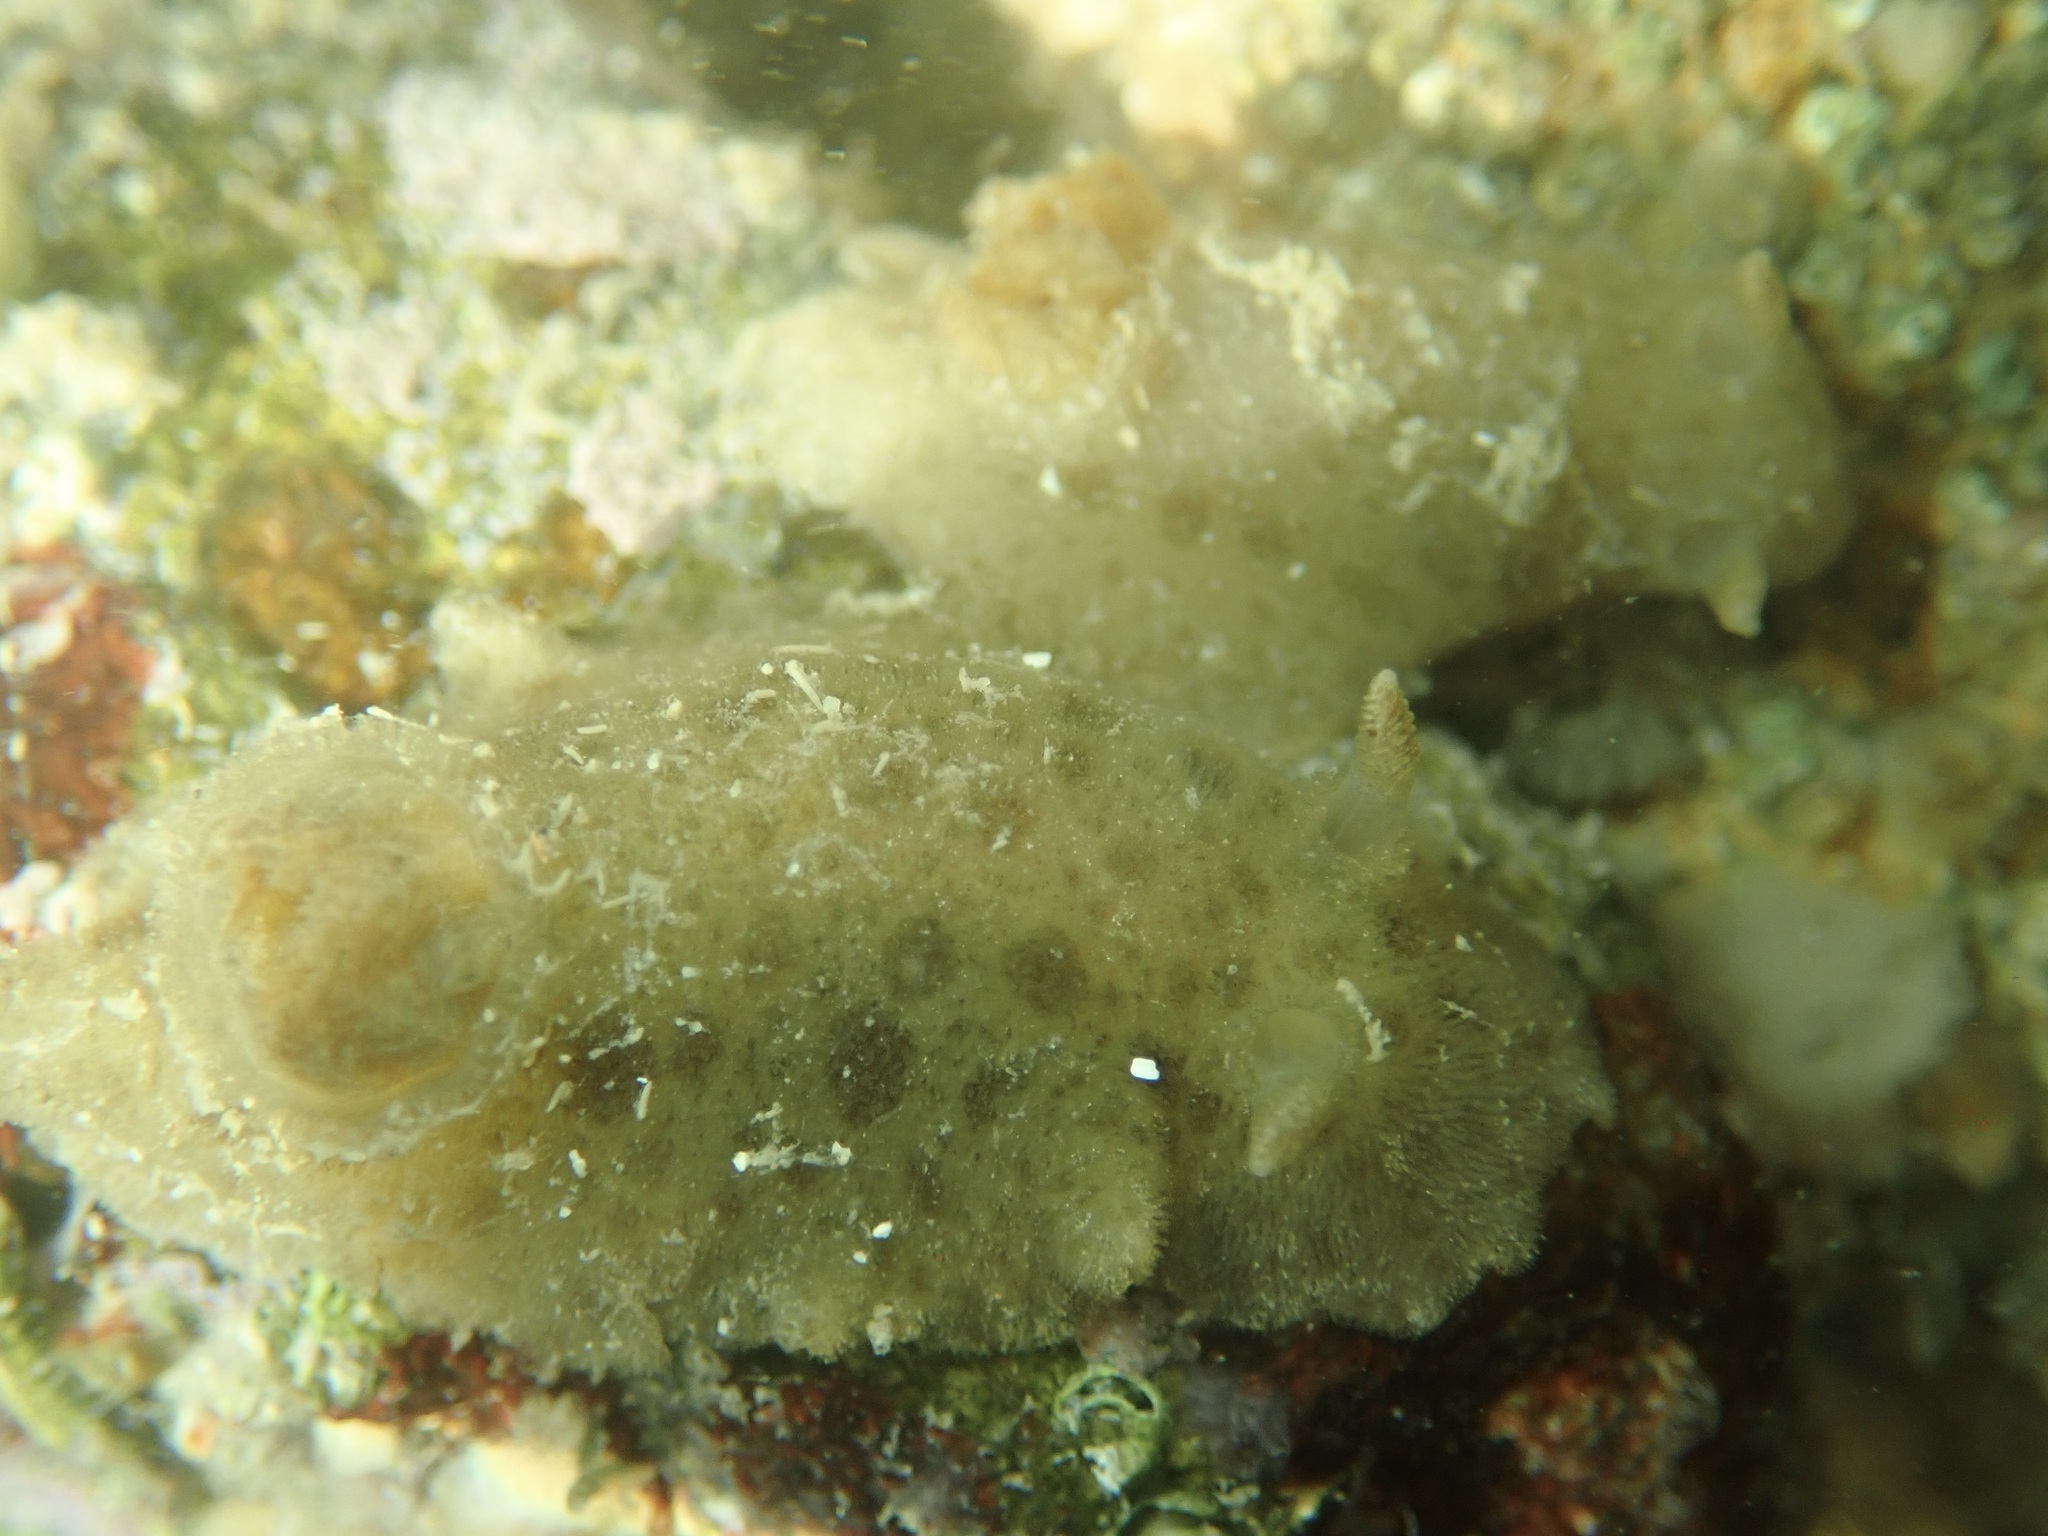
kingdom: Animalia
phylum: Mollusca
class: Gastropoda
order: Nudibranchia
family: Discodorididae
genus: Jorunna
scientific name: Jorunna osae
